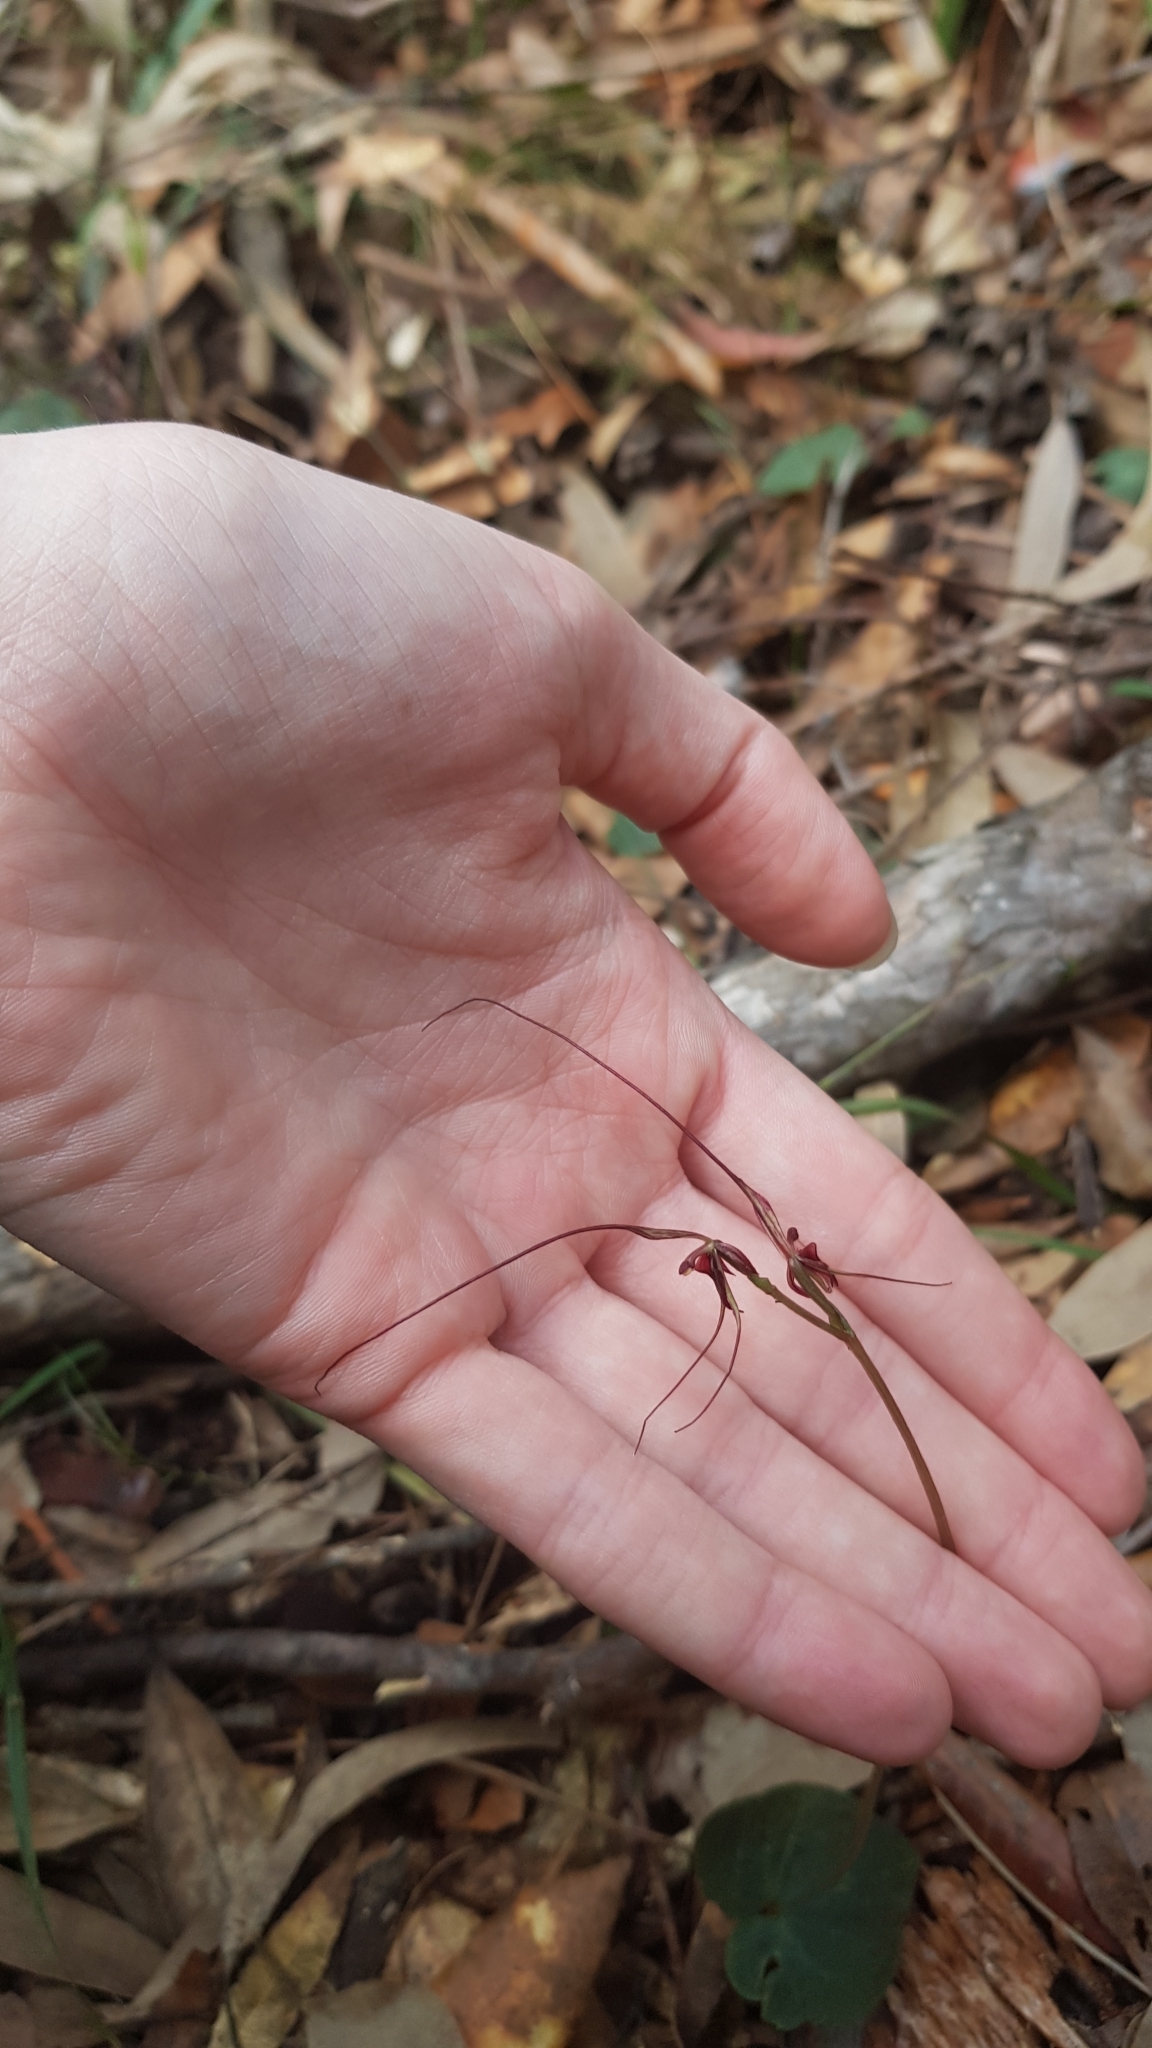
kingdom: Plantae
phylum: Tracheophyta
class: Liliopsida
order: Asparagales
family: Orchidaceae
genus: Acianthus
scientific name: Acianthus caudatus
